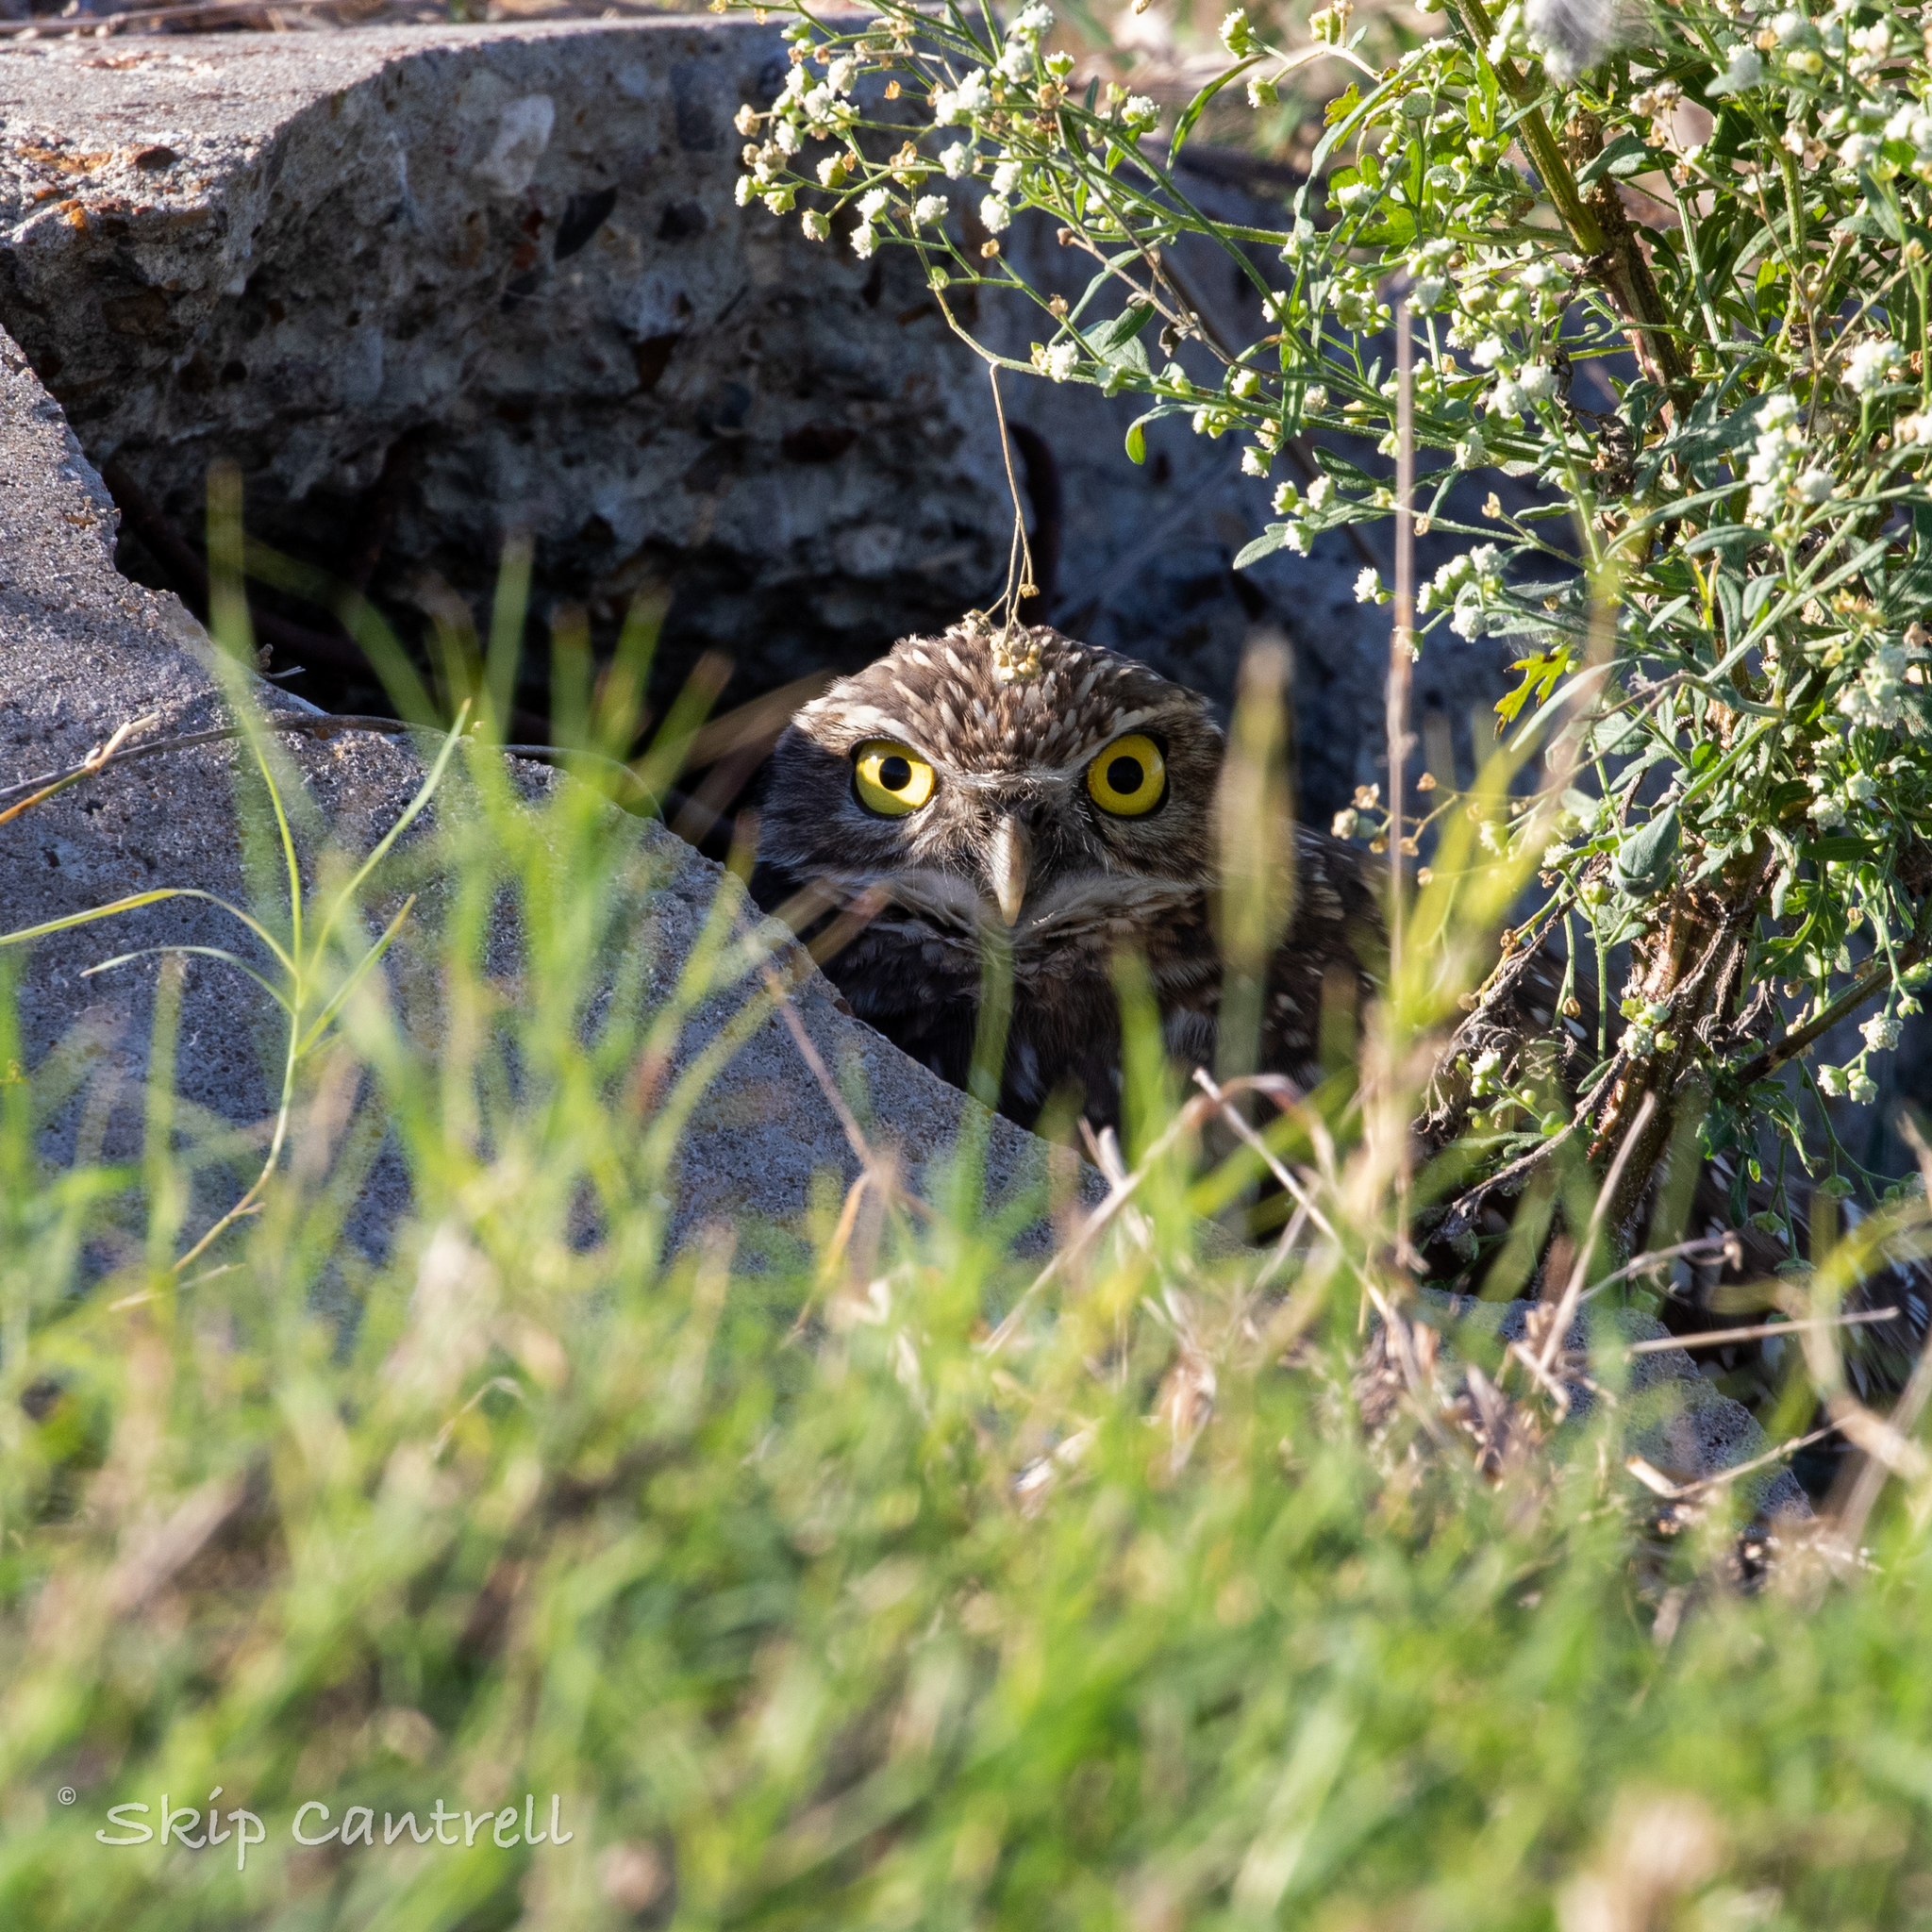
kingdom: Animalia
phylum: Chordata
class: Aves
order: Strigiformes
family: Strigidae
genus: Athene
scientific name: Athene cunicularia
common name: Burrowing owl
